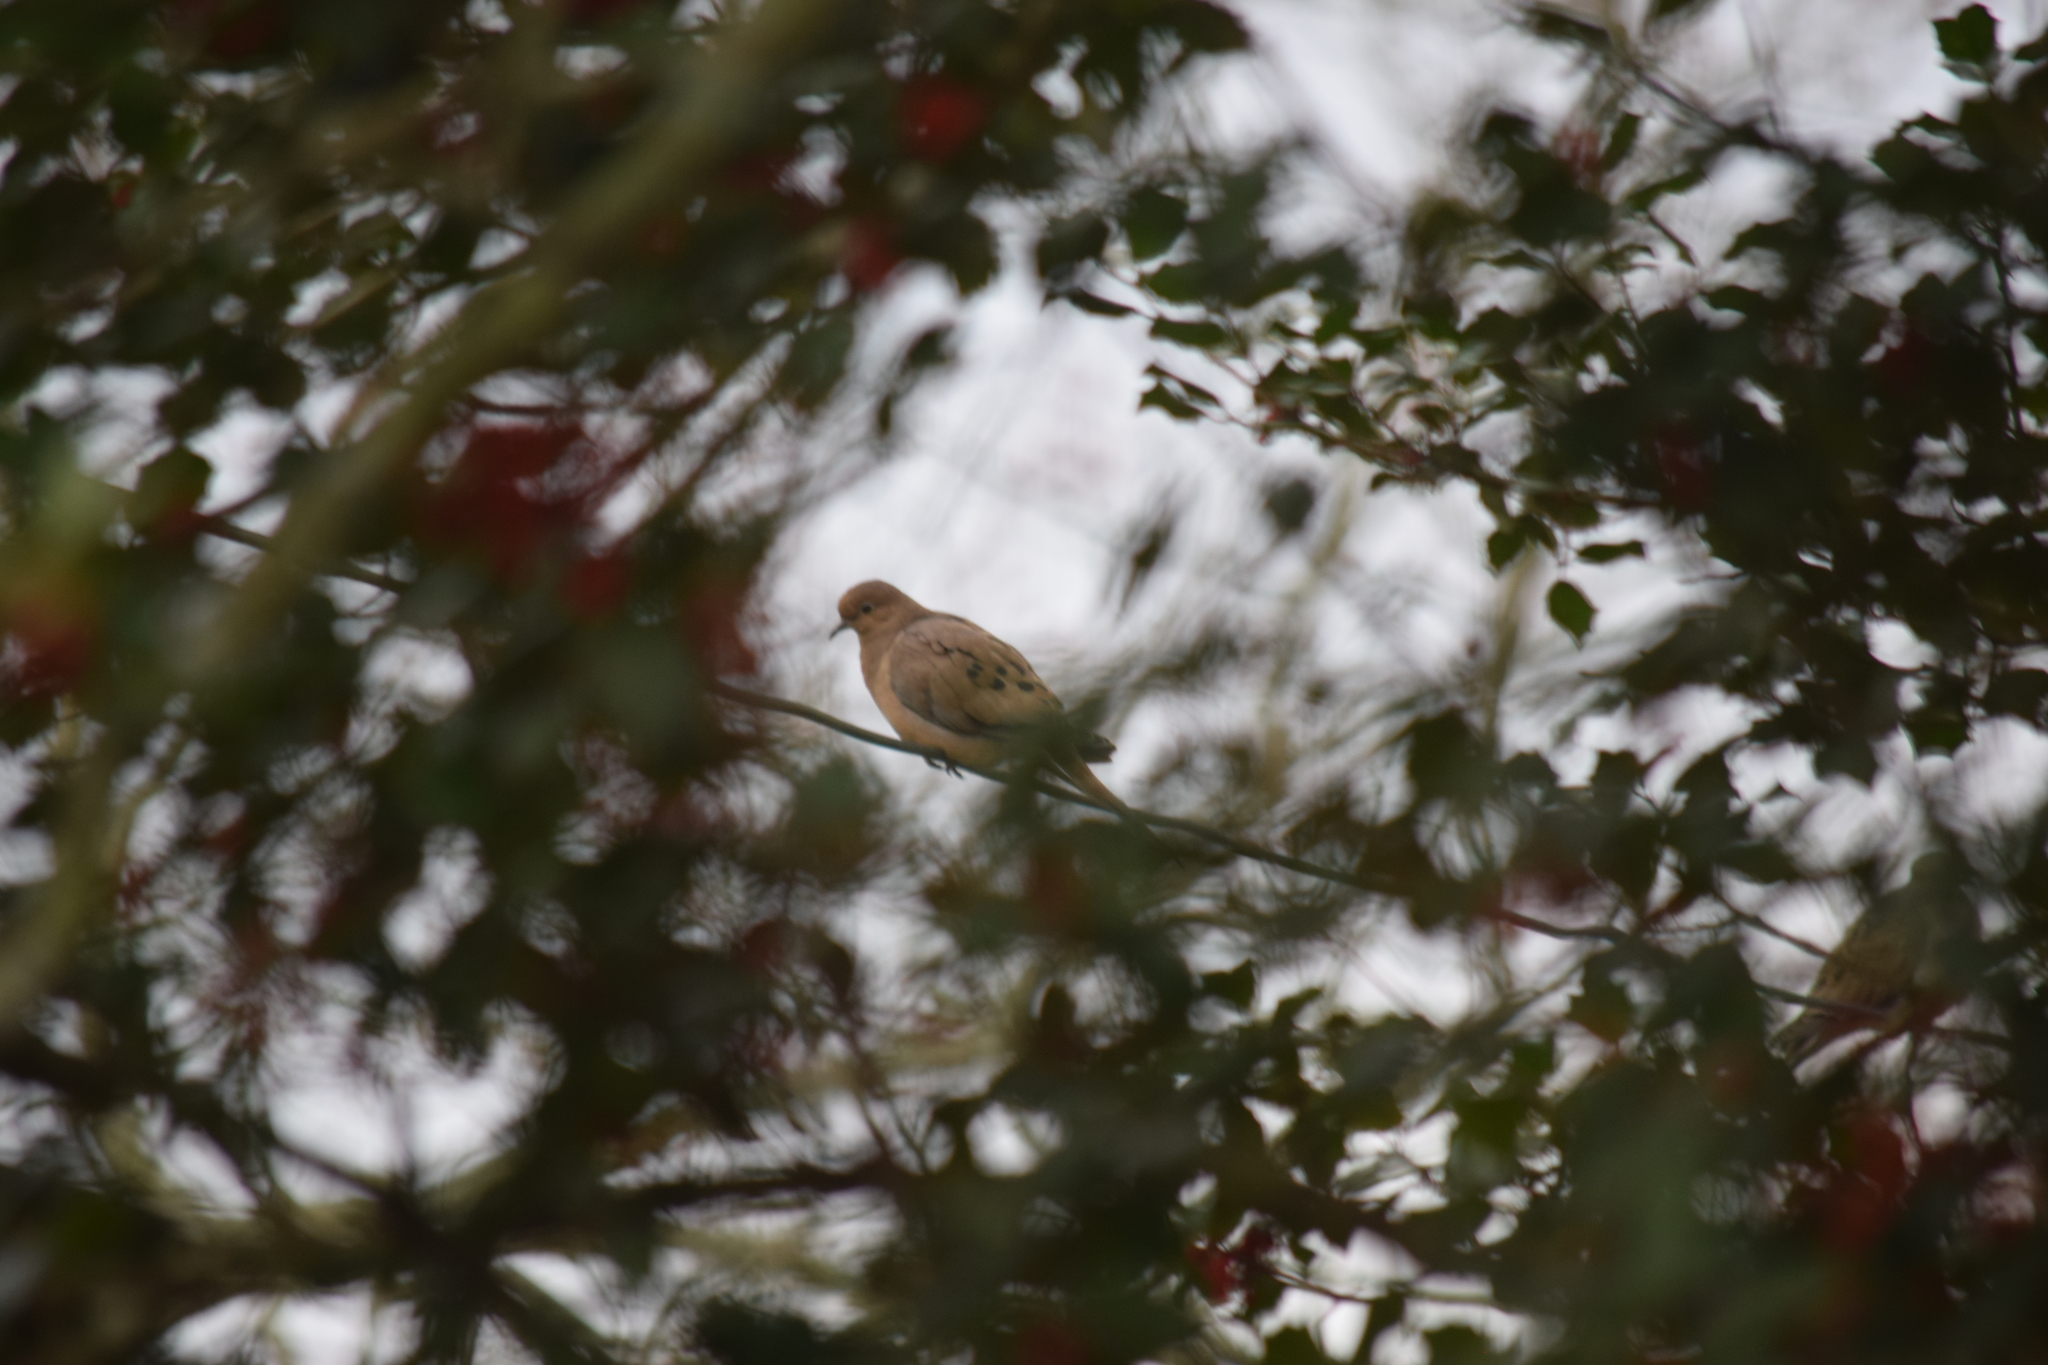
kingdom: Animalia
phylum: Chordata
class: Aves
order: Columbiformes
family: Columbidae
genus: Zenaida
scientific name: Zenaida macroura
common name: Mourning dove
